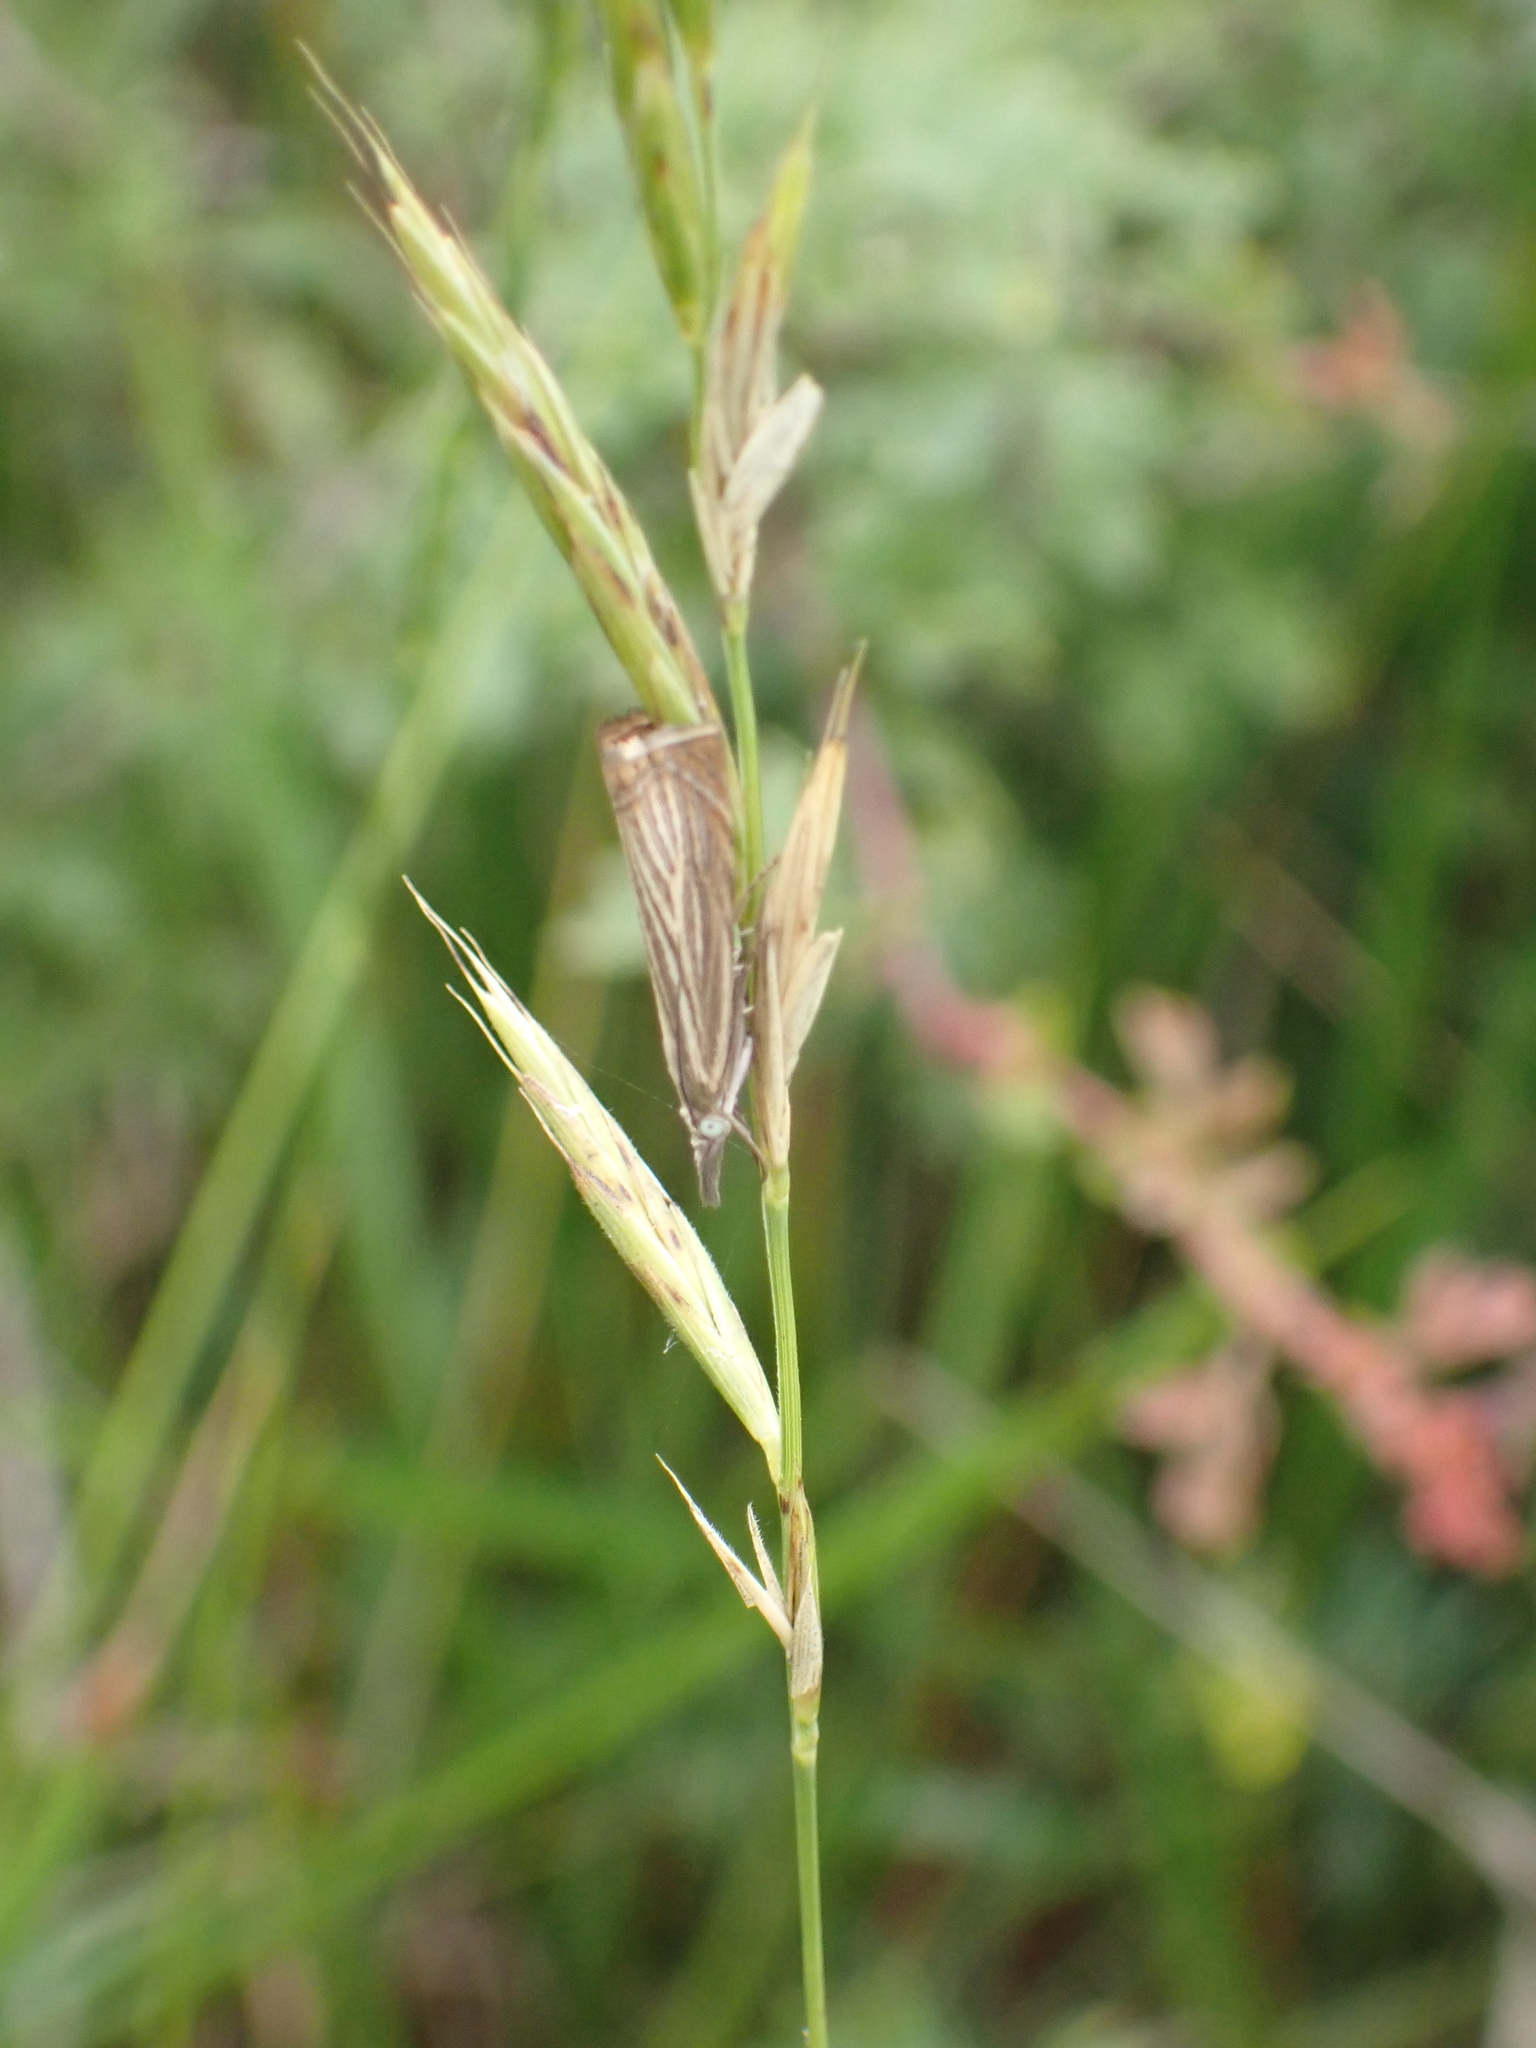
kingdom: Animalia
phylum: Arthropoda
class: Insecta
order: Lepidoptera
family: Crambidae
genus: Chrysoteuchia
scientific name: Chrysoteuchia culmella
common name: Garden grass-veneer
